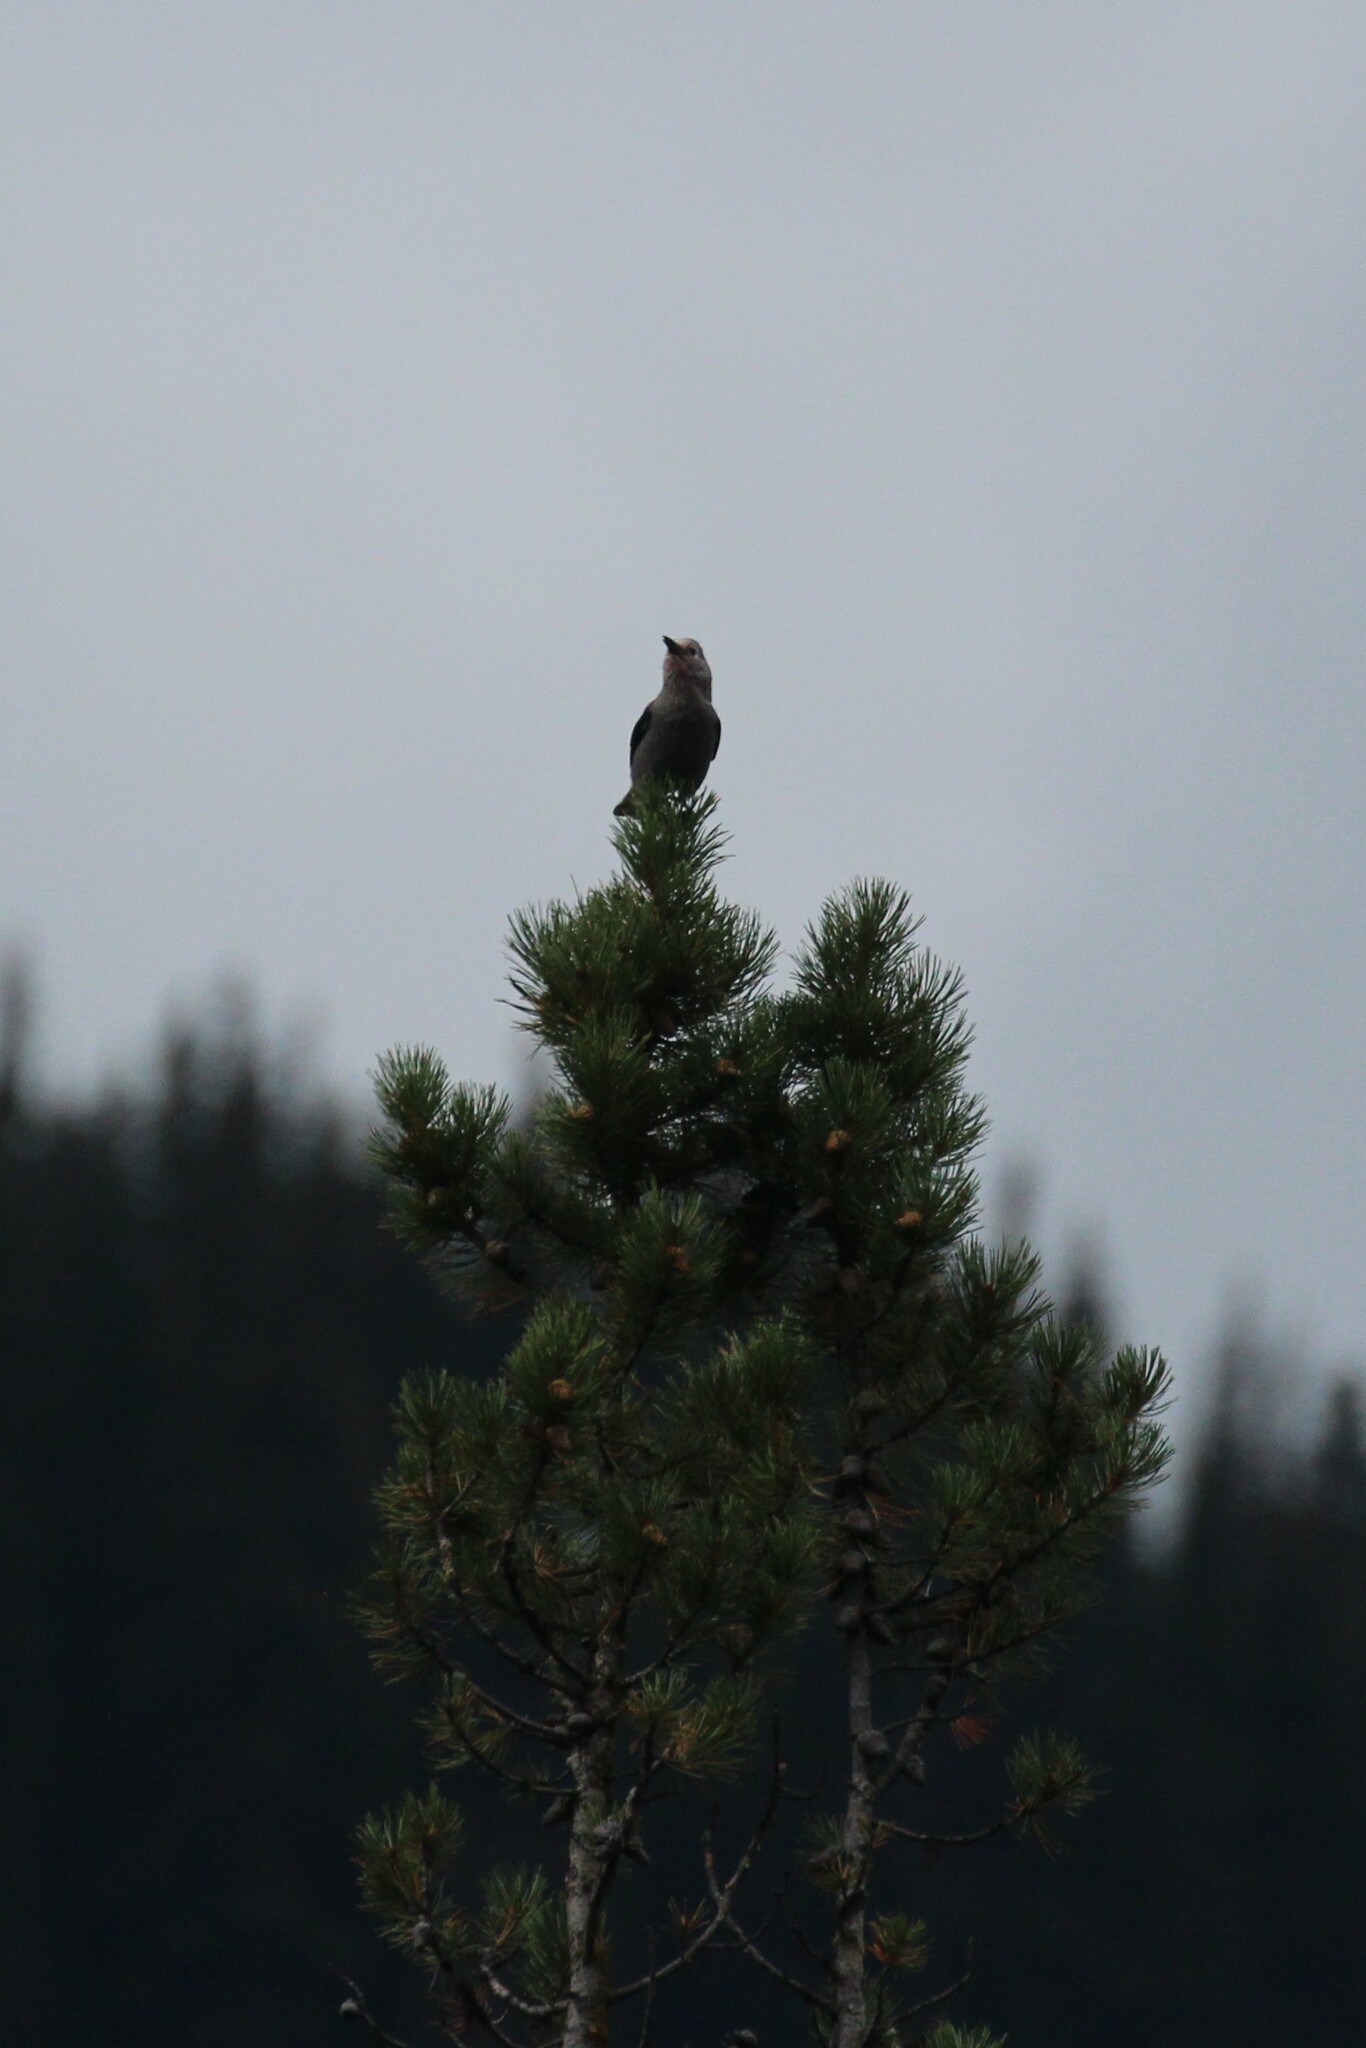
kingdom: Animalia
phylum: Chordata
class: Aves
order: Passeriformes
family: Corvidae
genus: Nucifraga
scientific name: Nucifraga columbiana
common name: Clark's nutcracker
